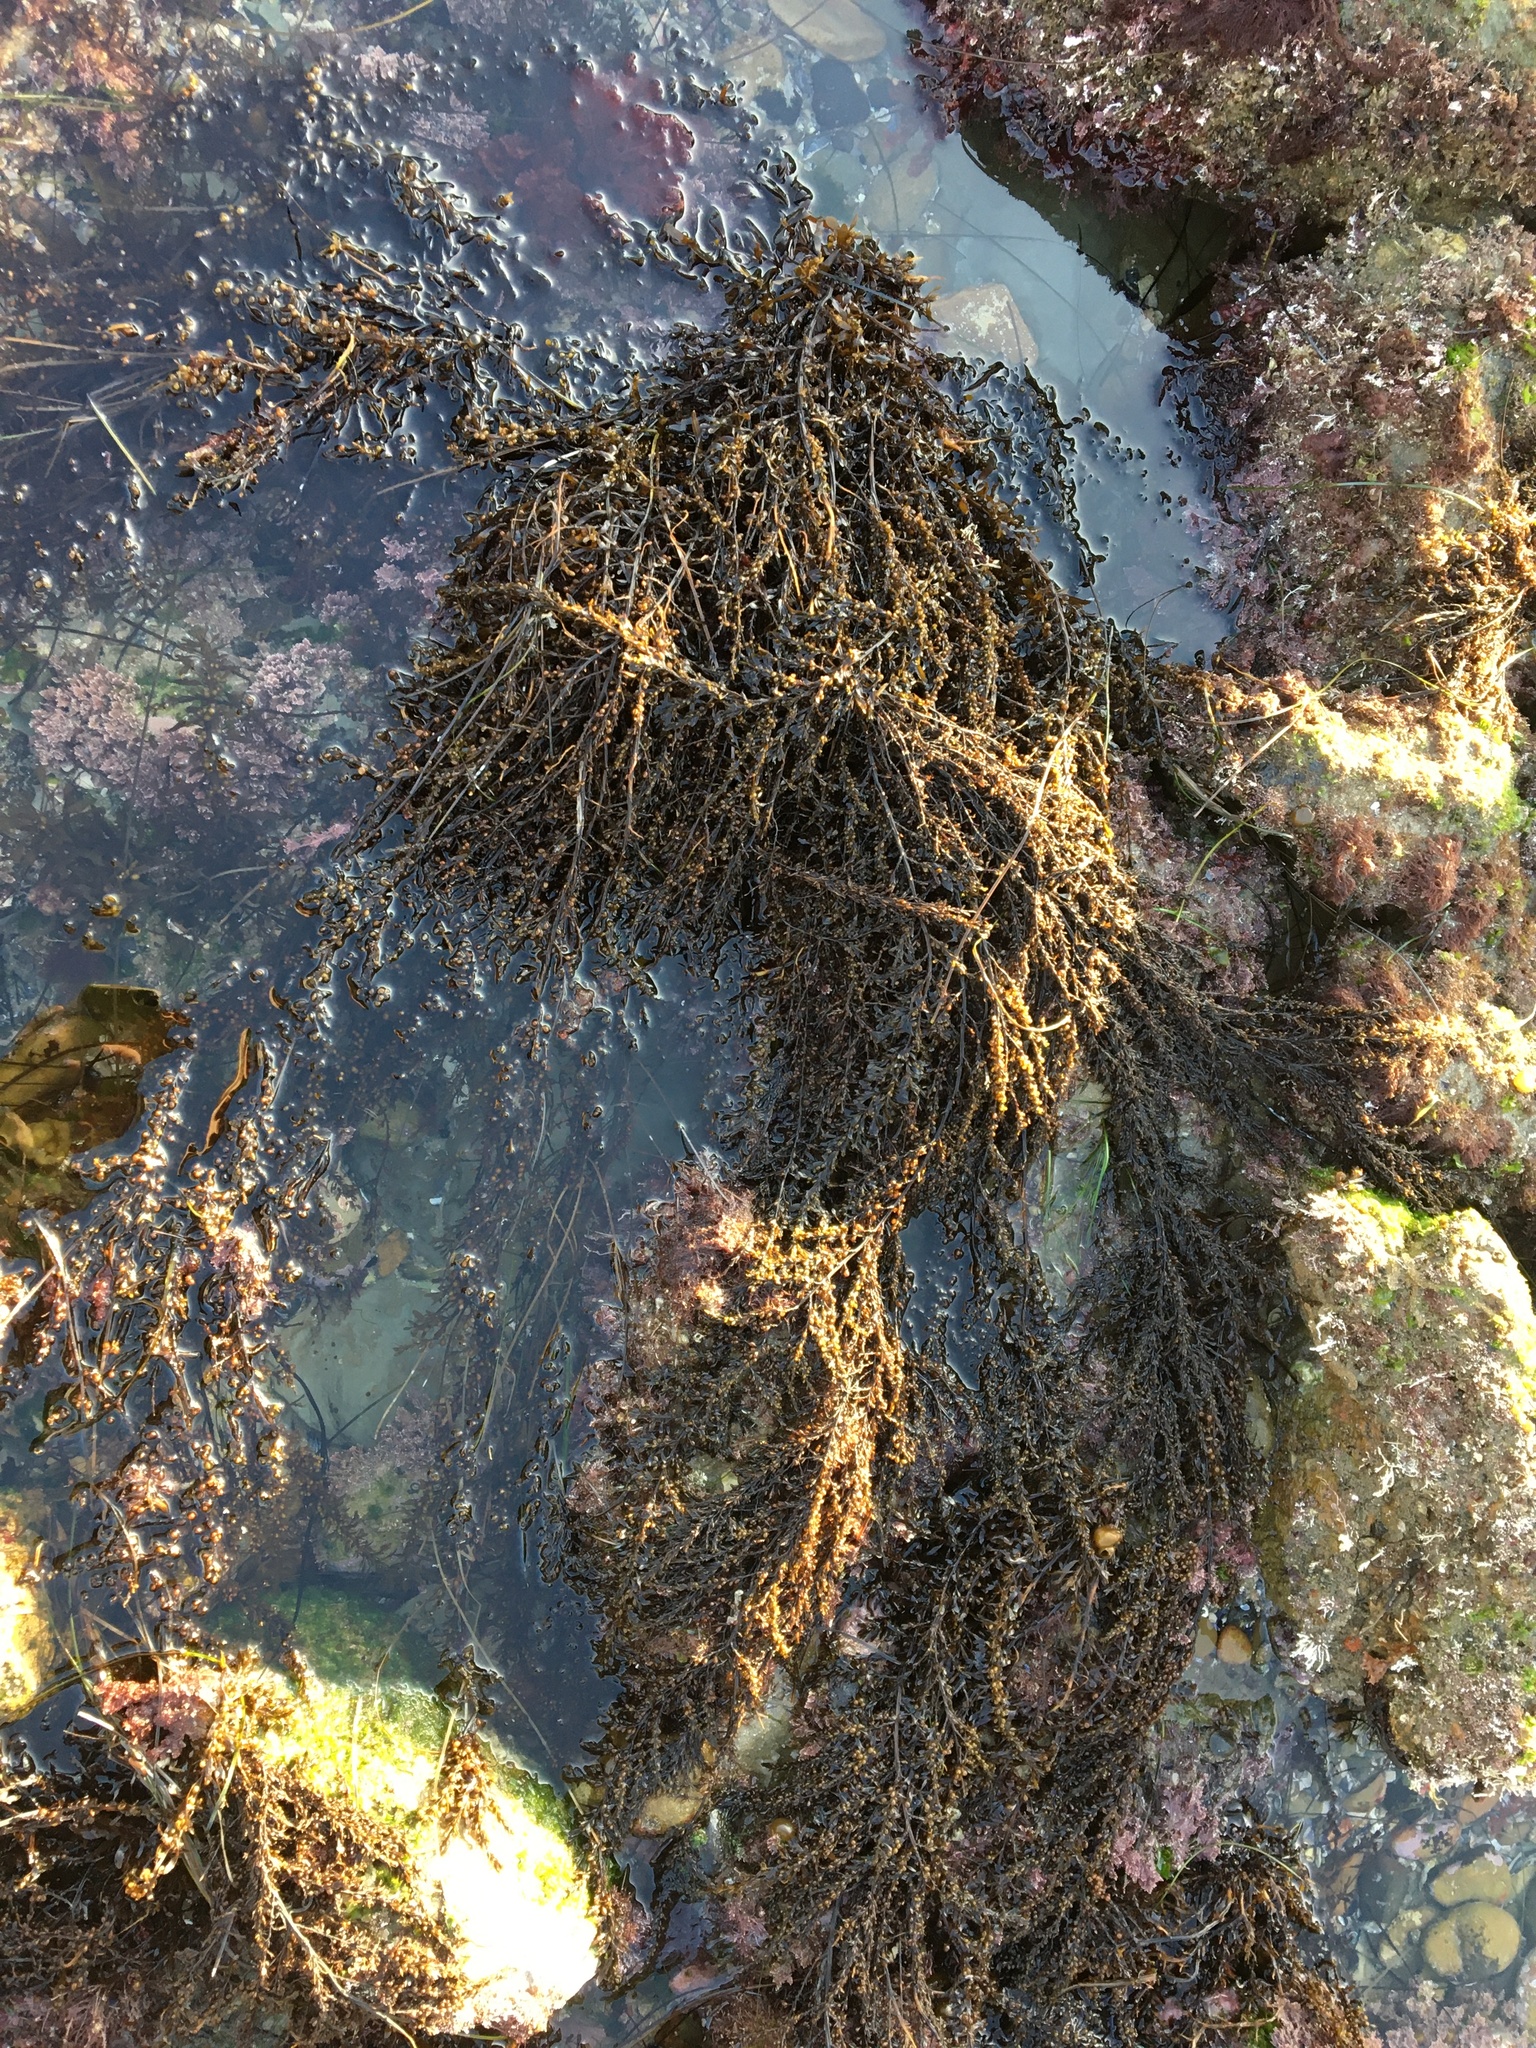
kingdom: Chromista
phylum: Ochrophyta
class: Phaeophyceae
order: Fucales
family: Sargassaceae
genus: Sargassum
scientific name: Sargassum muticum
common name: Japweed
